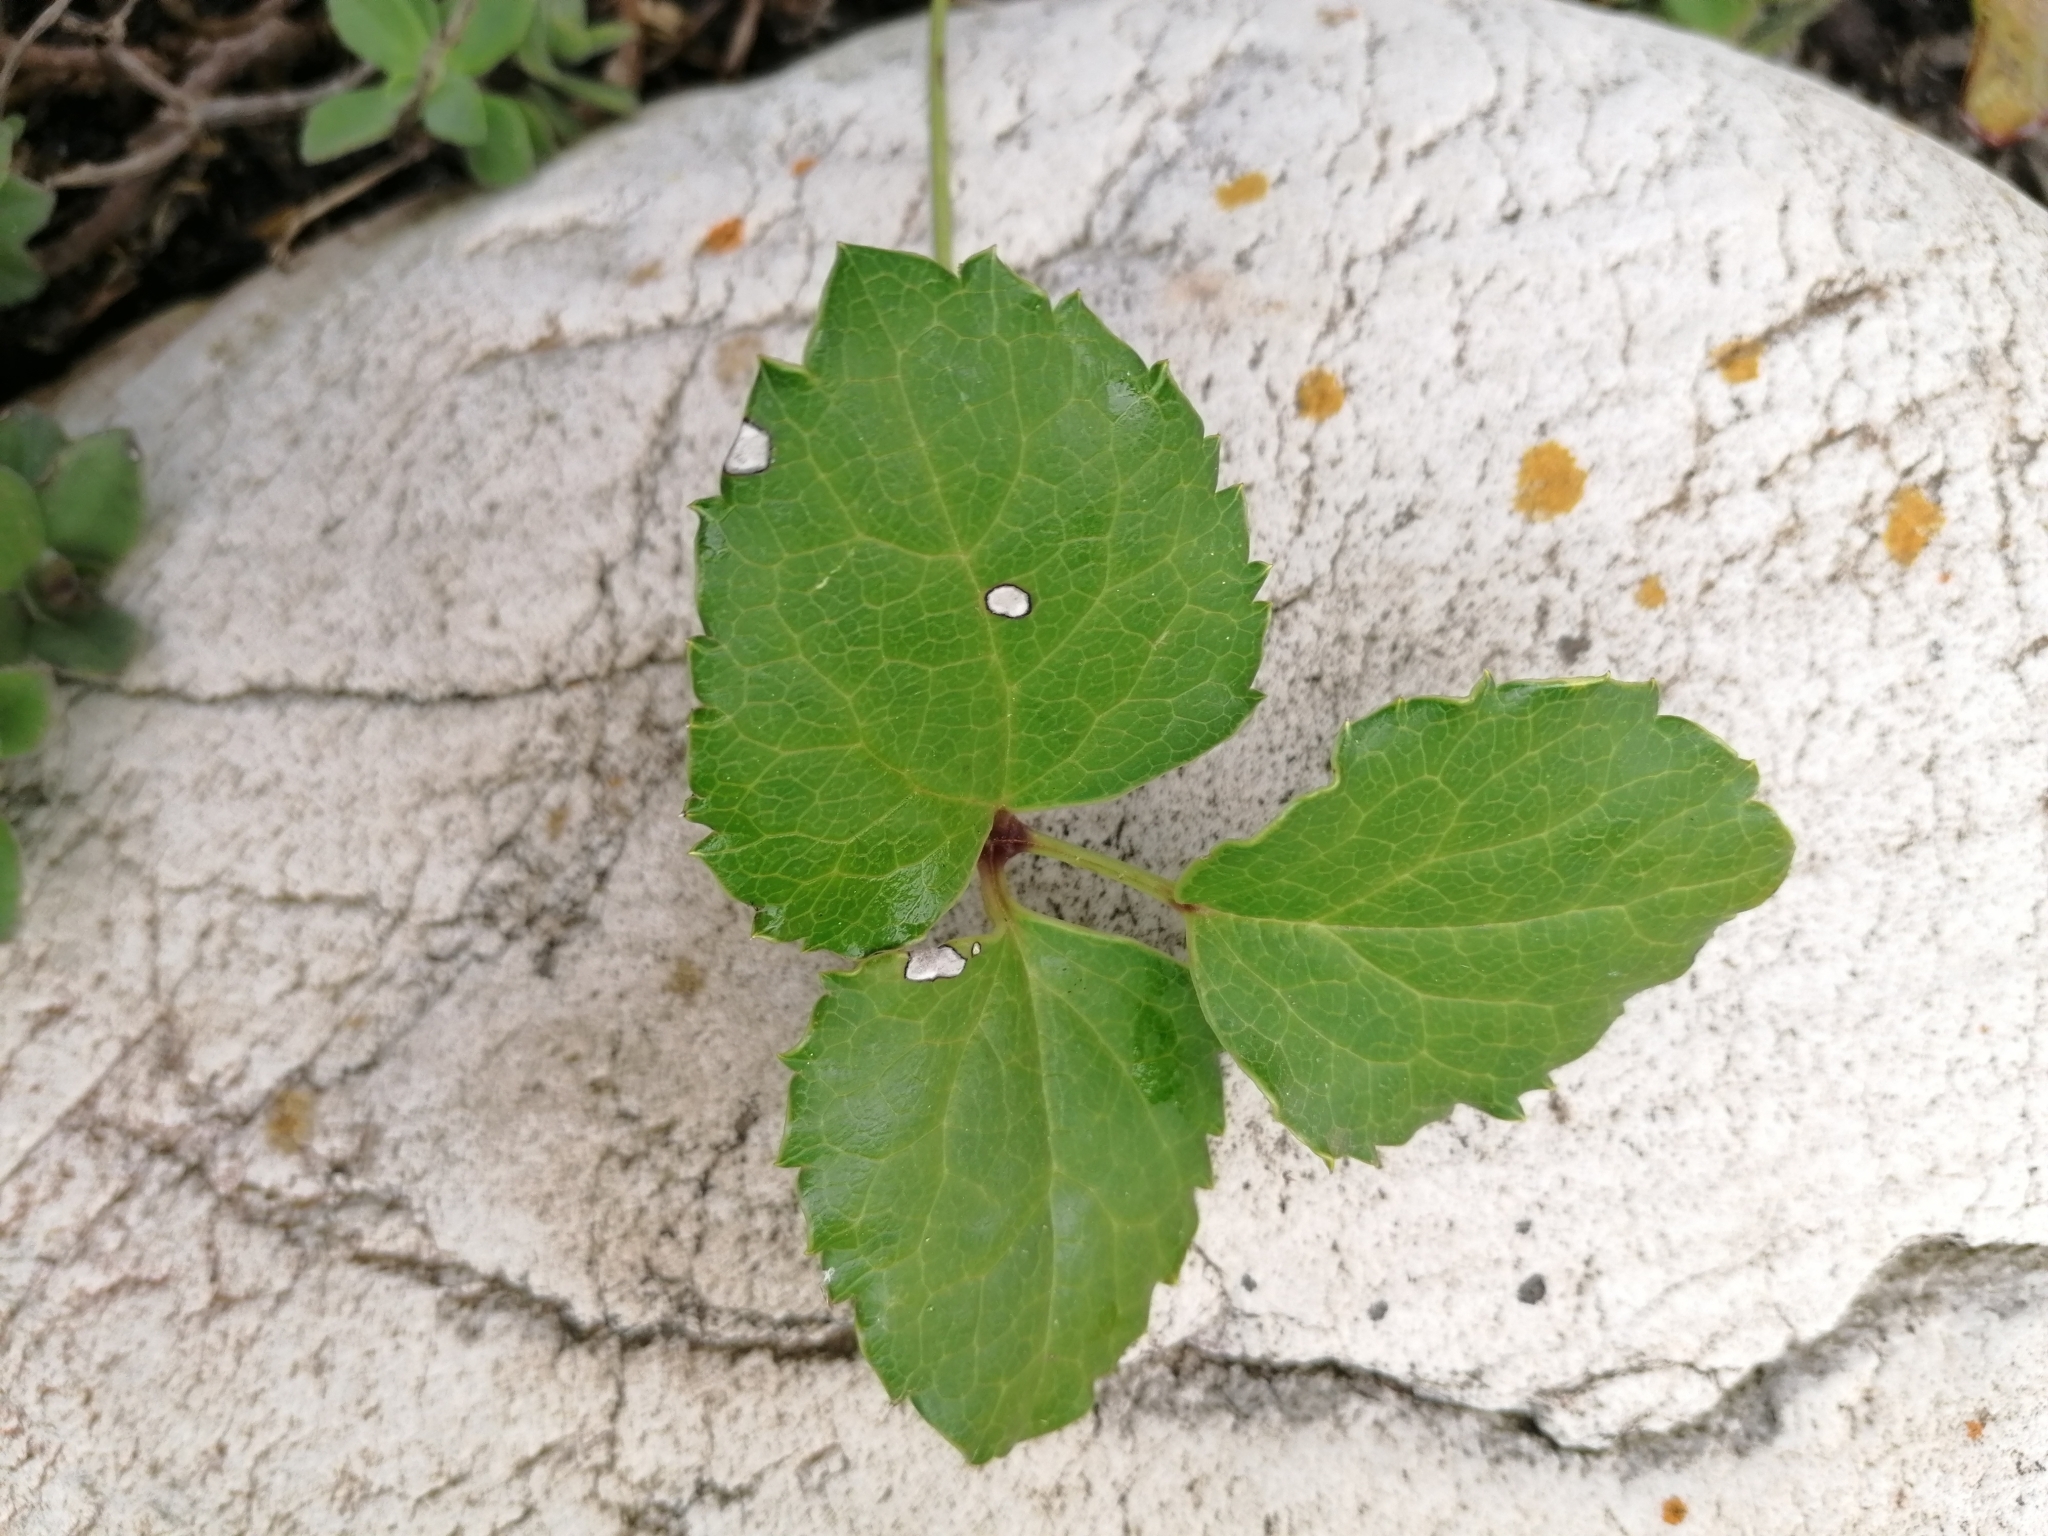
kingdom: Plantae
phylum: Tracheophyta
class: Magnoliopsida
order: Ranunculales
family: Ranunculaceae
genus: Knowltonia
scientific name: Knowltonia vesicatoria
